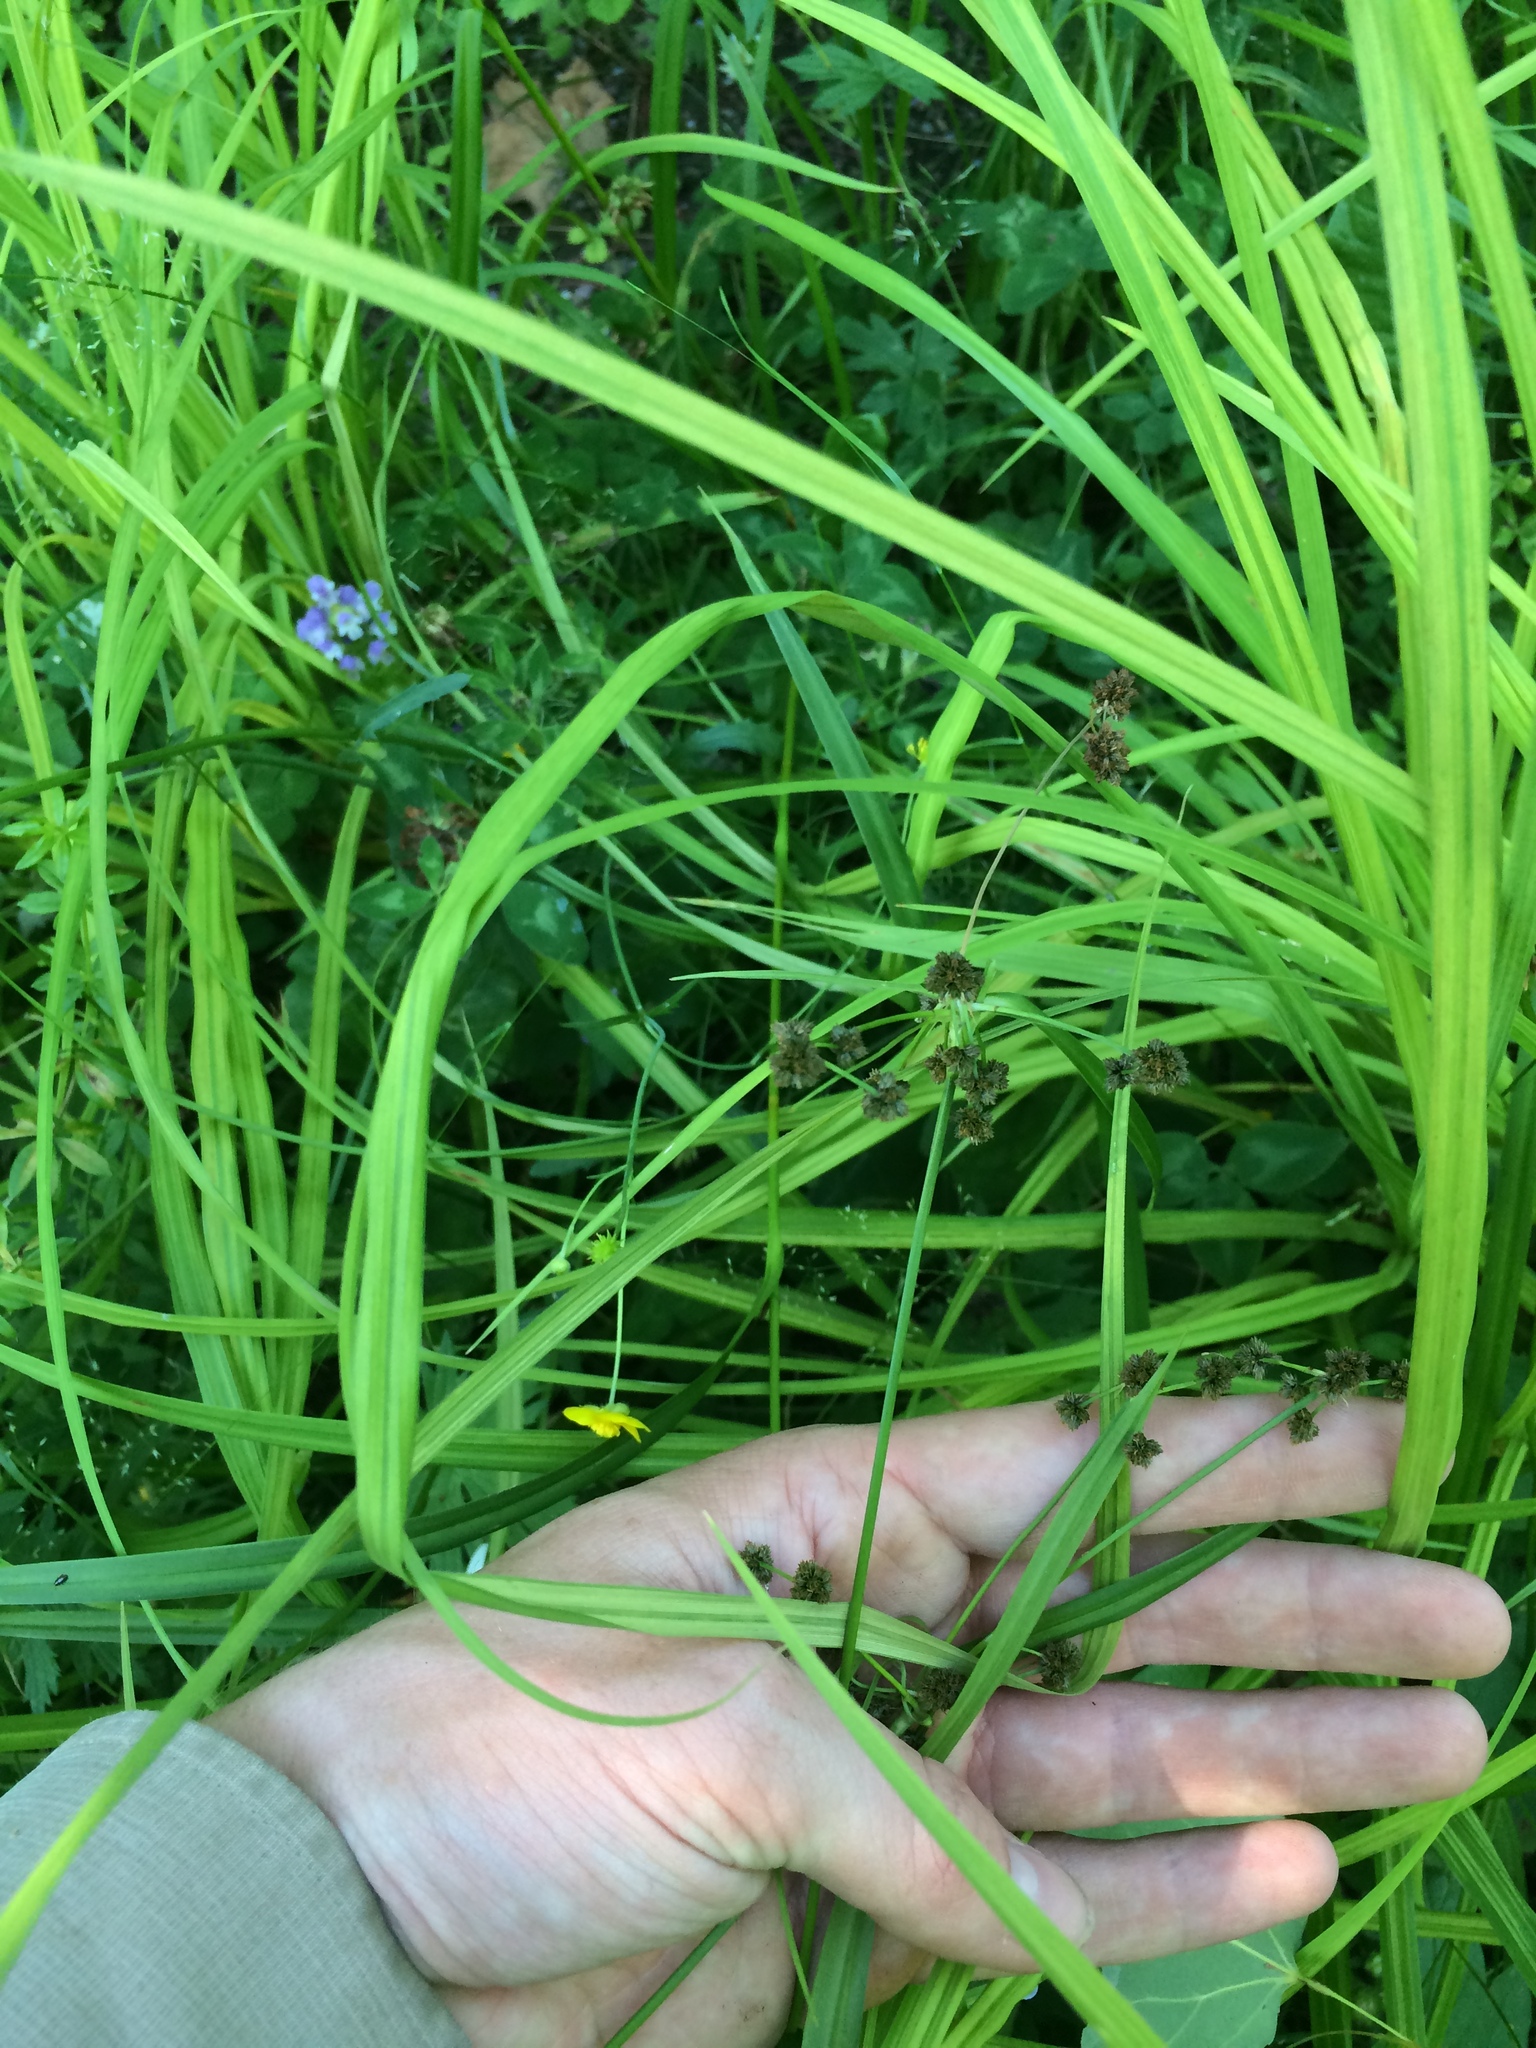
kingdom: Plantae
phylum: Tracheophyta
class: Liliopsida
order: Poales
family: Cyperaceae
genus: Scirpus
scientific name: Scirpus hattorianus
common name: Early dark-green bulrush
